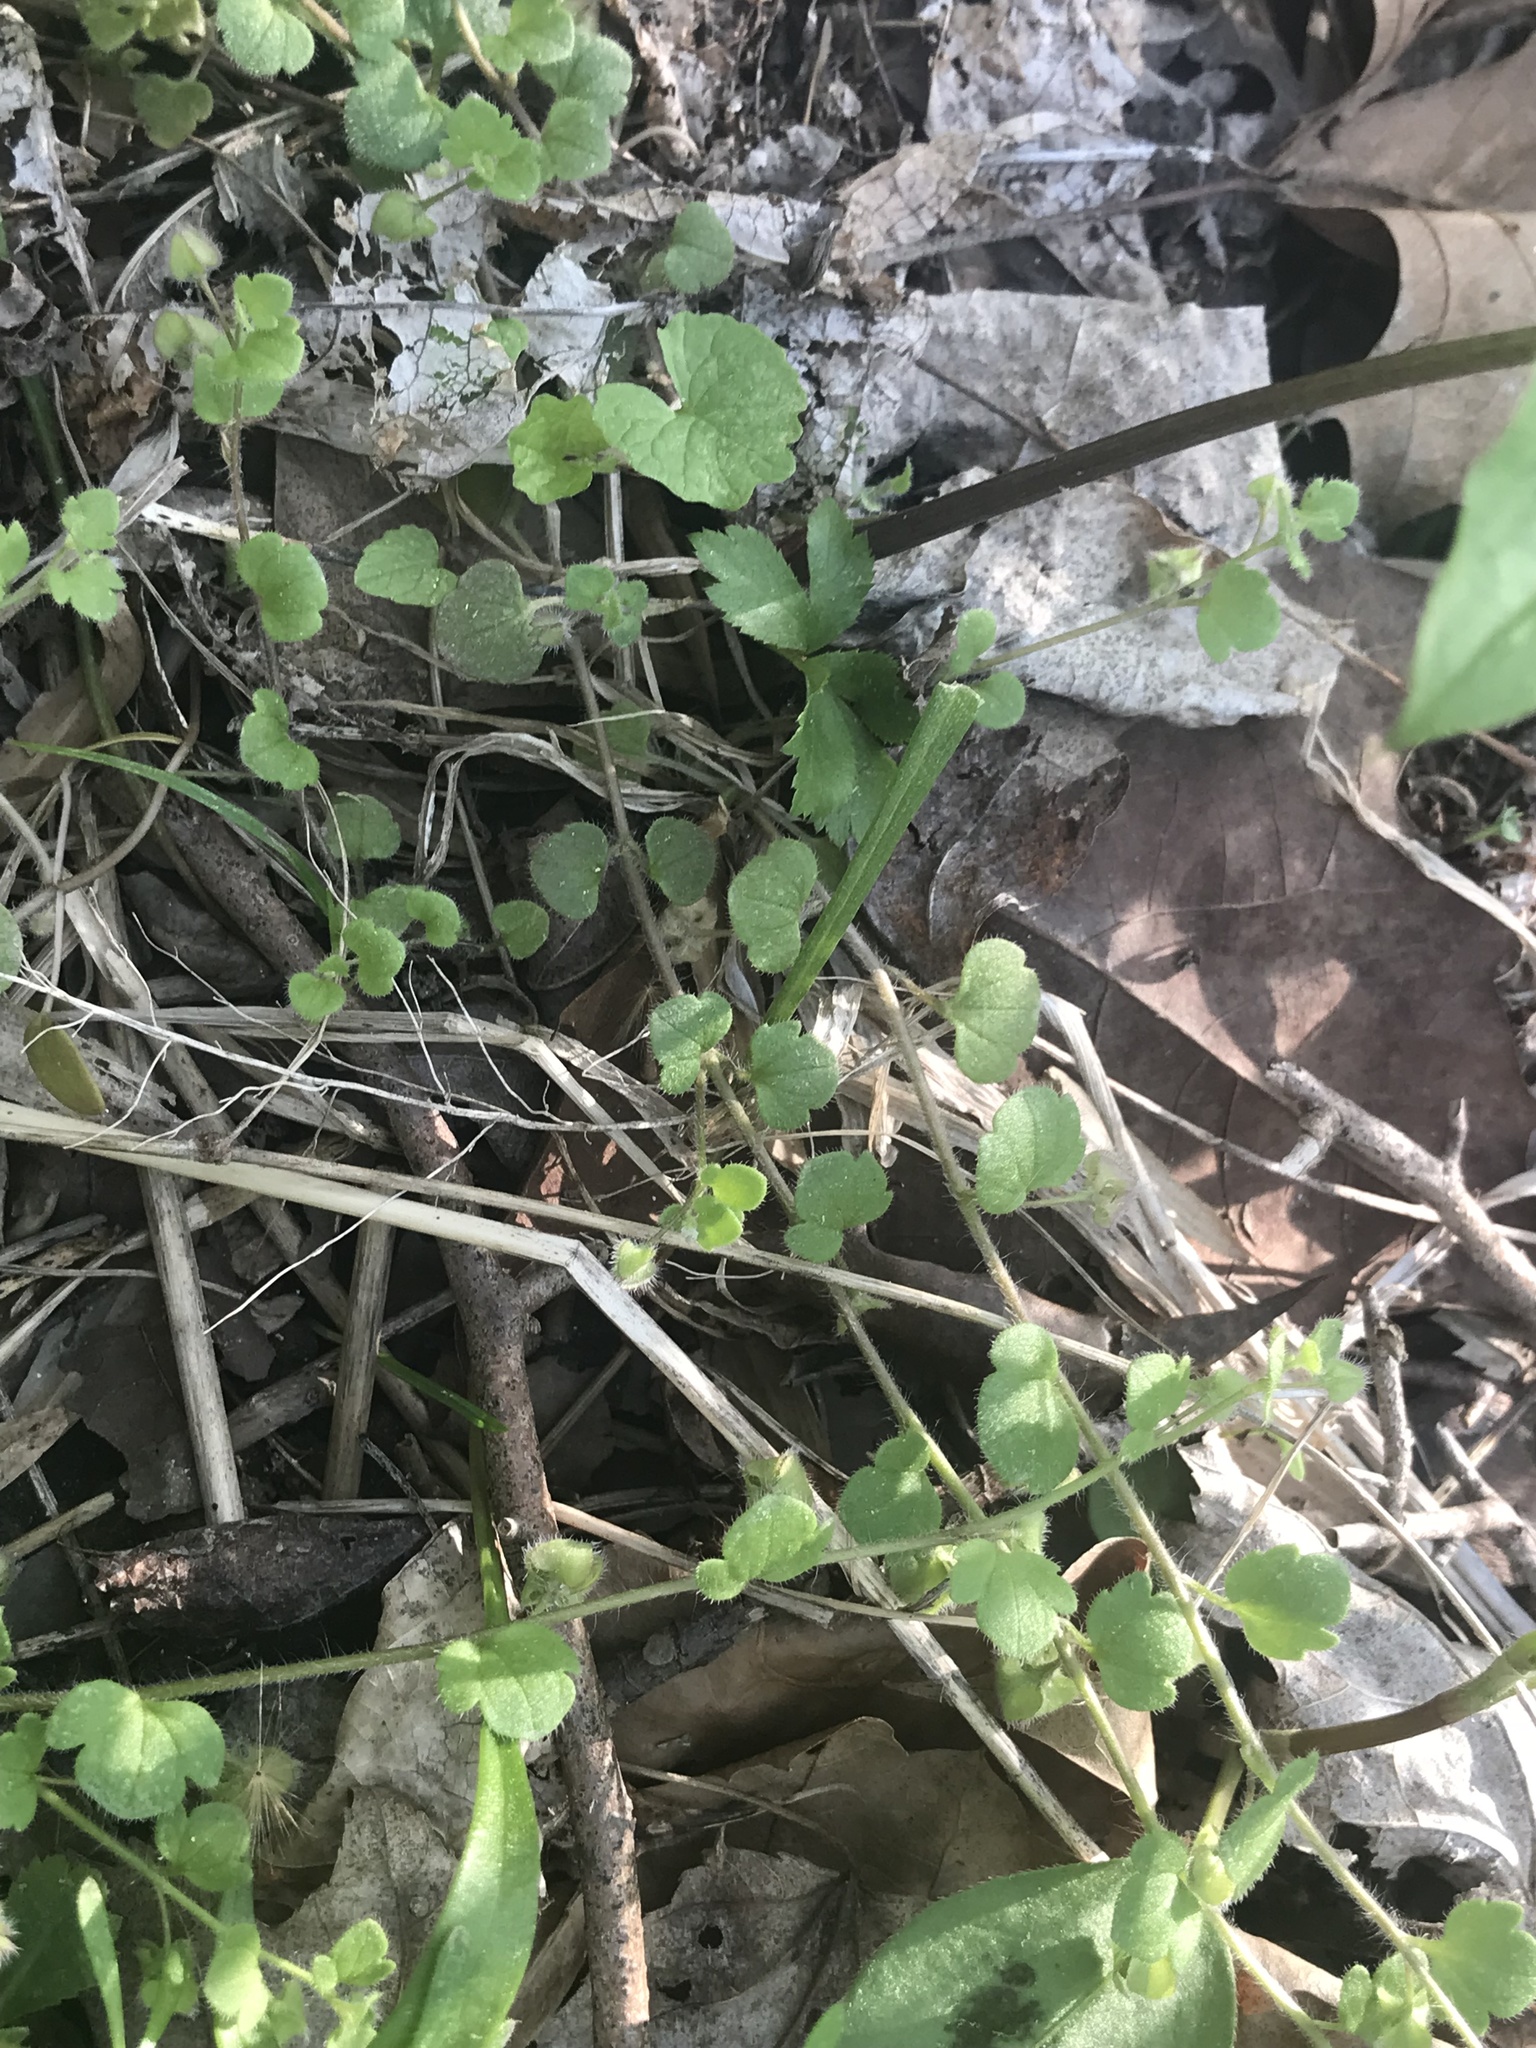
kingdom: Plantae
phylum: Tracheophyta
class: Magnoliopsida
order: Lamiales
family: Plantaginaceae
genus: Veronica
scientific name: Veronica hederifolia
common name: Ivy-leaved speedwell
